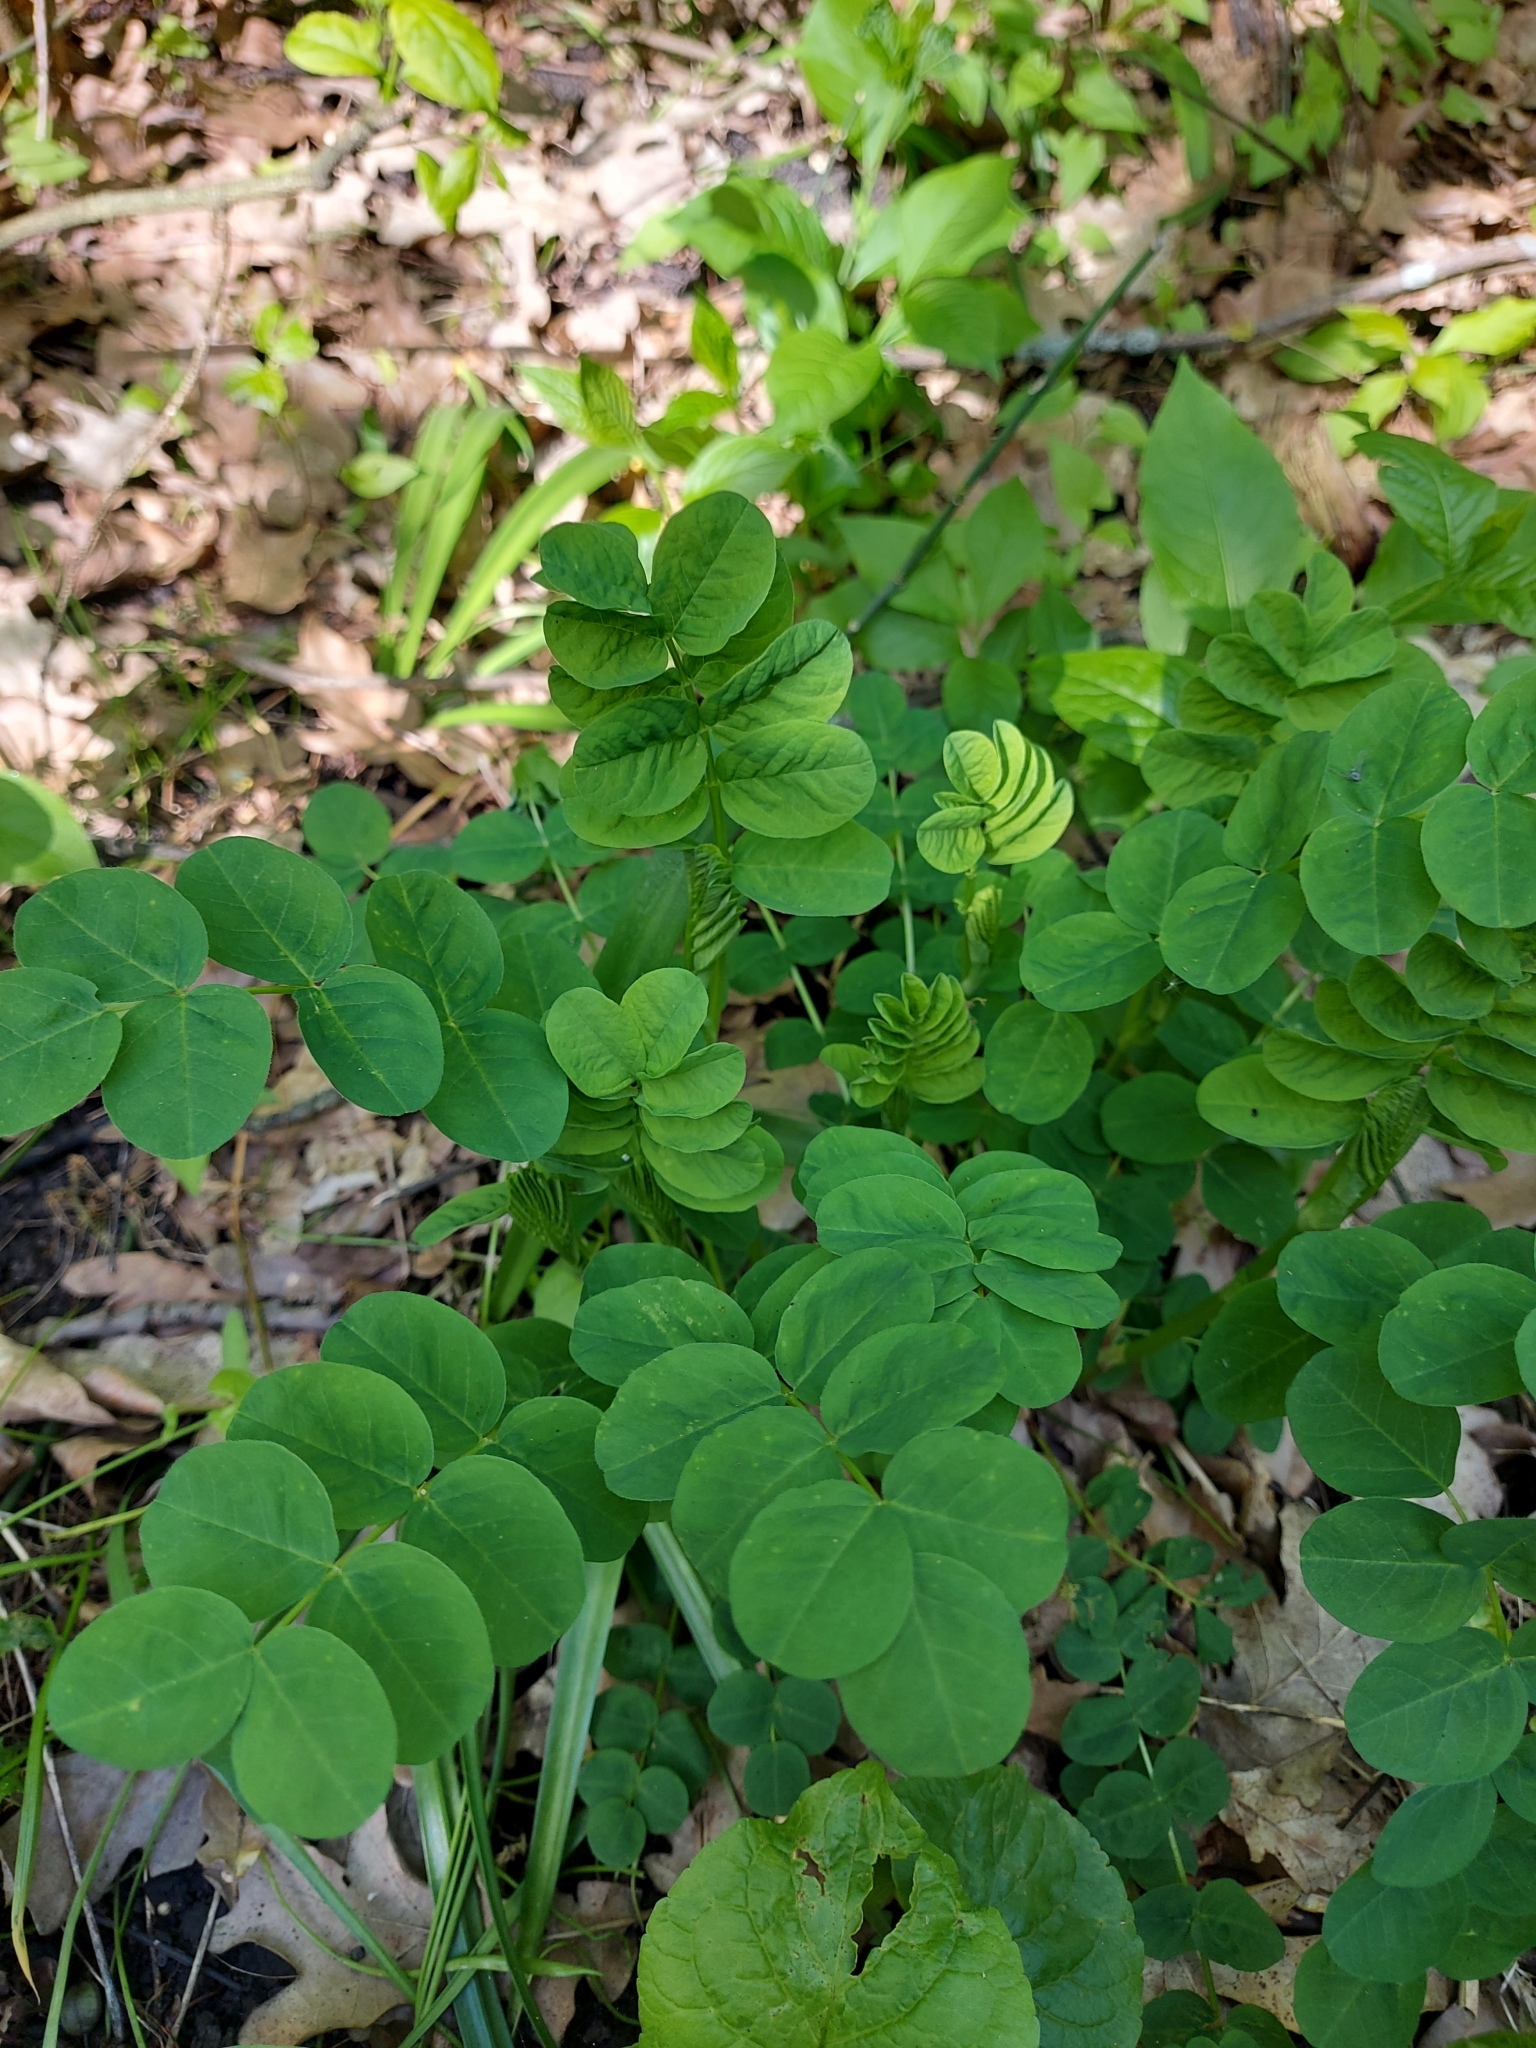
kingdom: Plantae
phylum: Tracheophyta
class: Magnoliopsida
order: Fabales
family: Fabaceae
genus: Astragalus
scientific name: Astragalus glycyphyllos
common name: Wild liquorice
